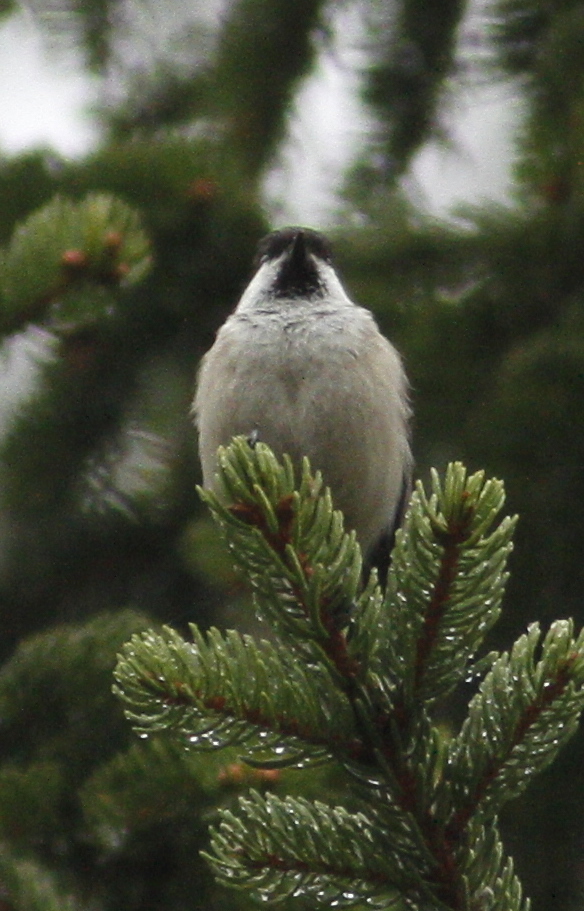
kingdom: Animalia
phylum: Chordata
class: Aves
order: Passeriformes
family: Paridae
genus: Poecile
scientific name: Poecile montanus
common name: Willow tit
